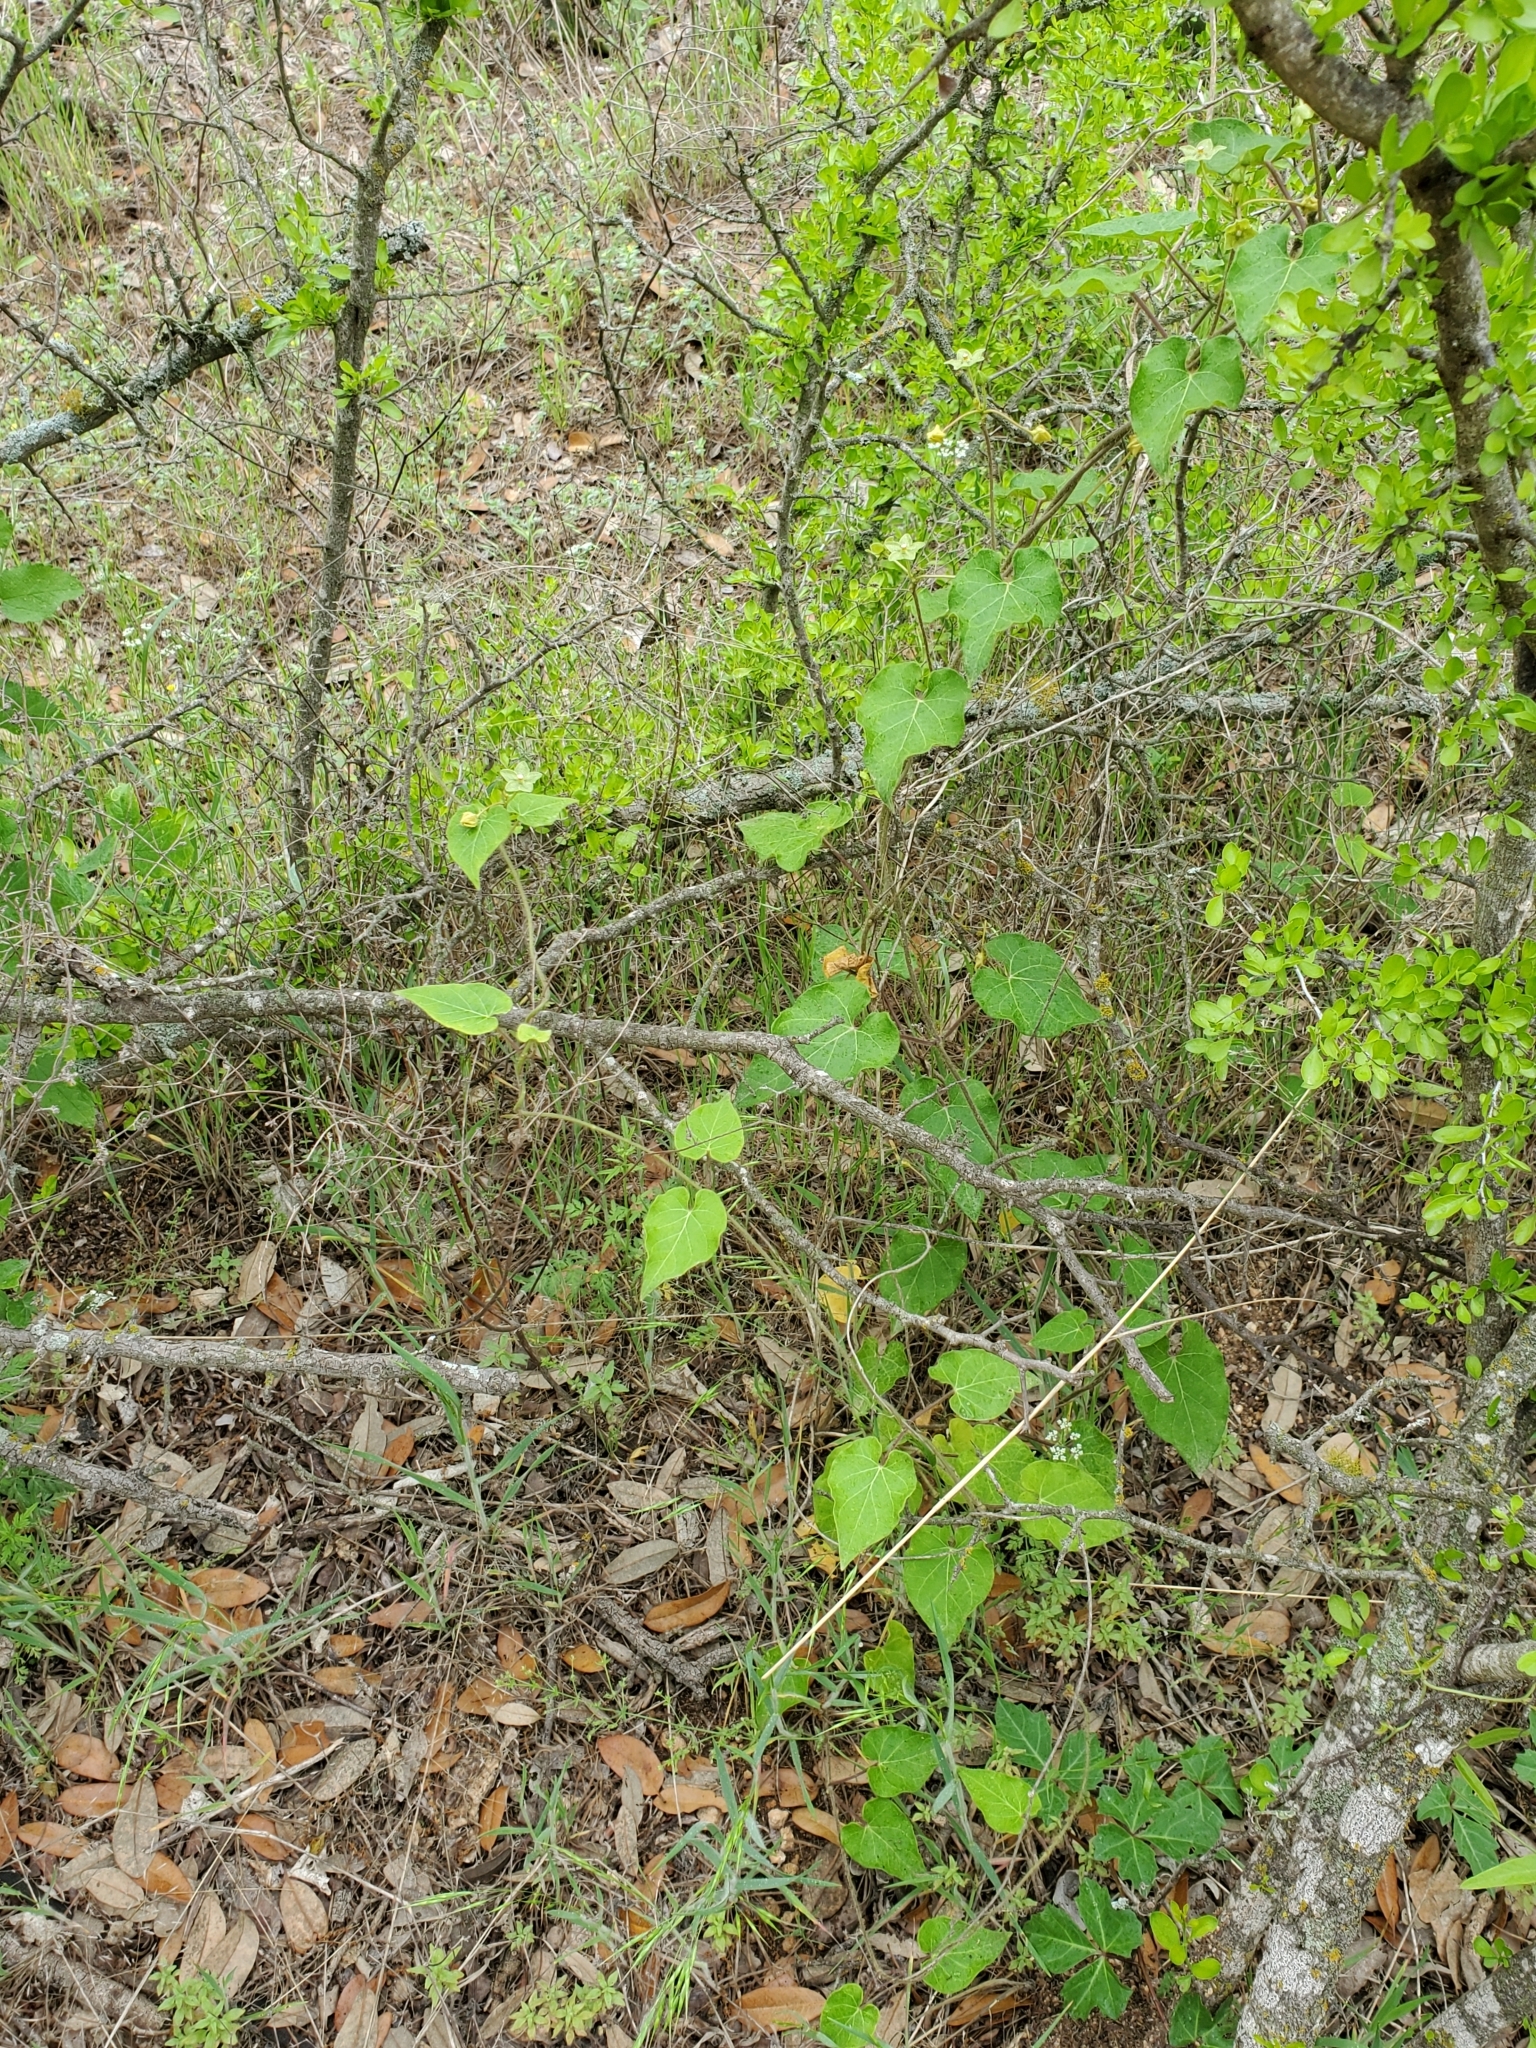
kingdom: Plantae
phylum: Tracheophyta
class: Magnoliopsida
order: Gentianales
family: Apocynaceae
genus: Dictyanthus
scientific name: Dictyanthus reticulatus
